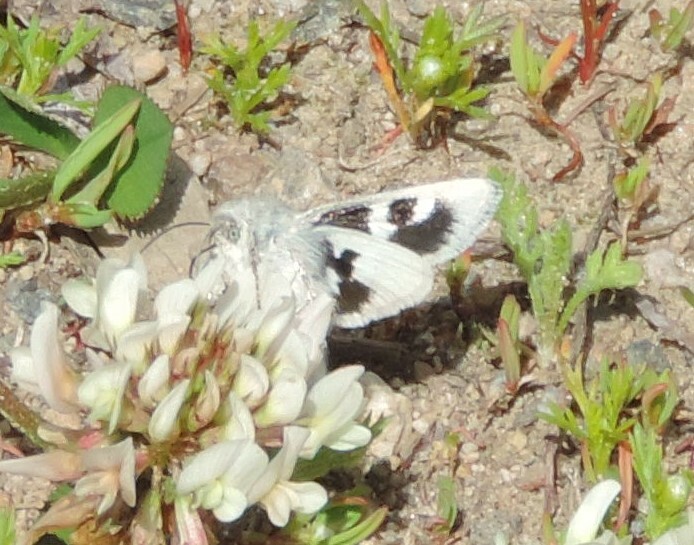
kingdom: Animalia
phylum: Arthropoda
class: Insecta
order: Lepidoptera
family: Noctuidae
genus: Schinia
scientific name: Schinia suetus
